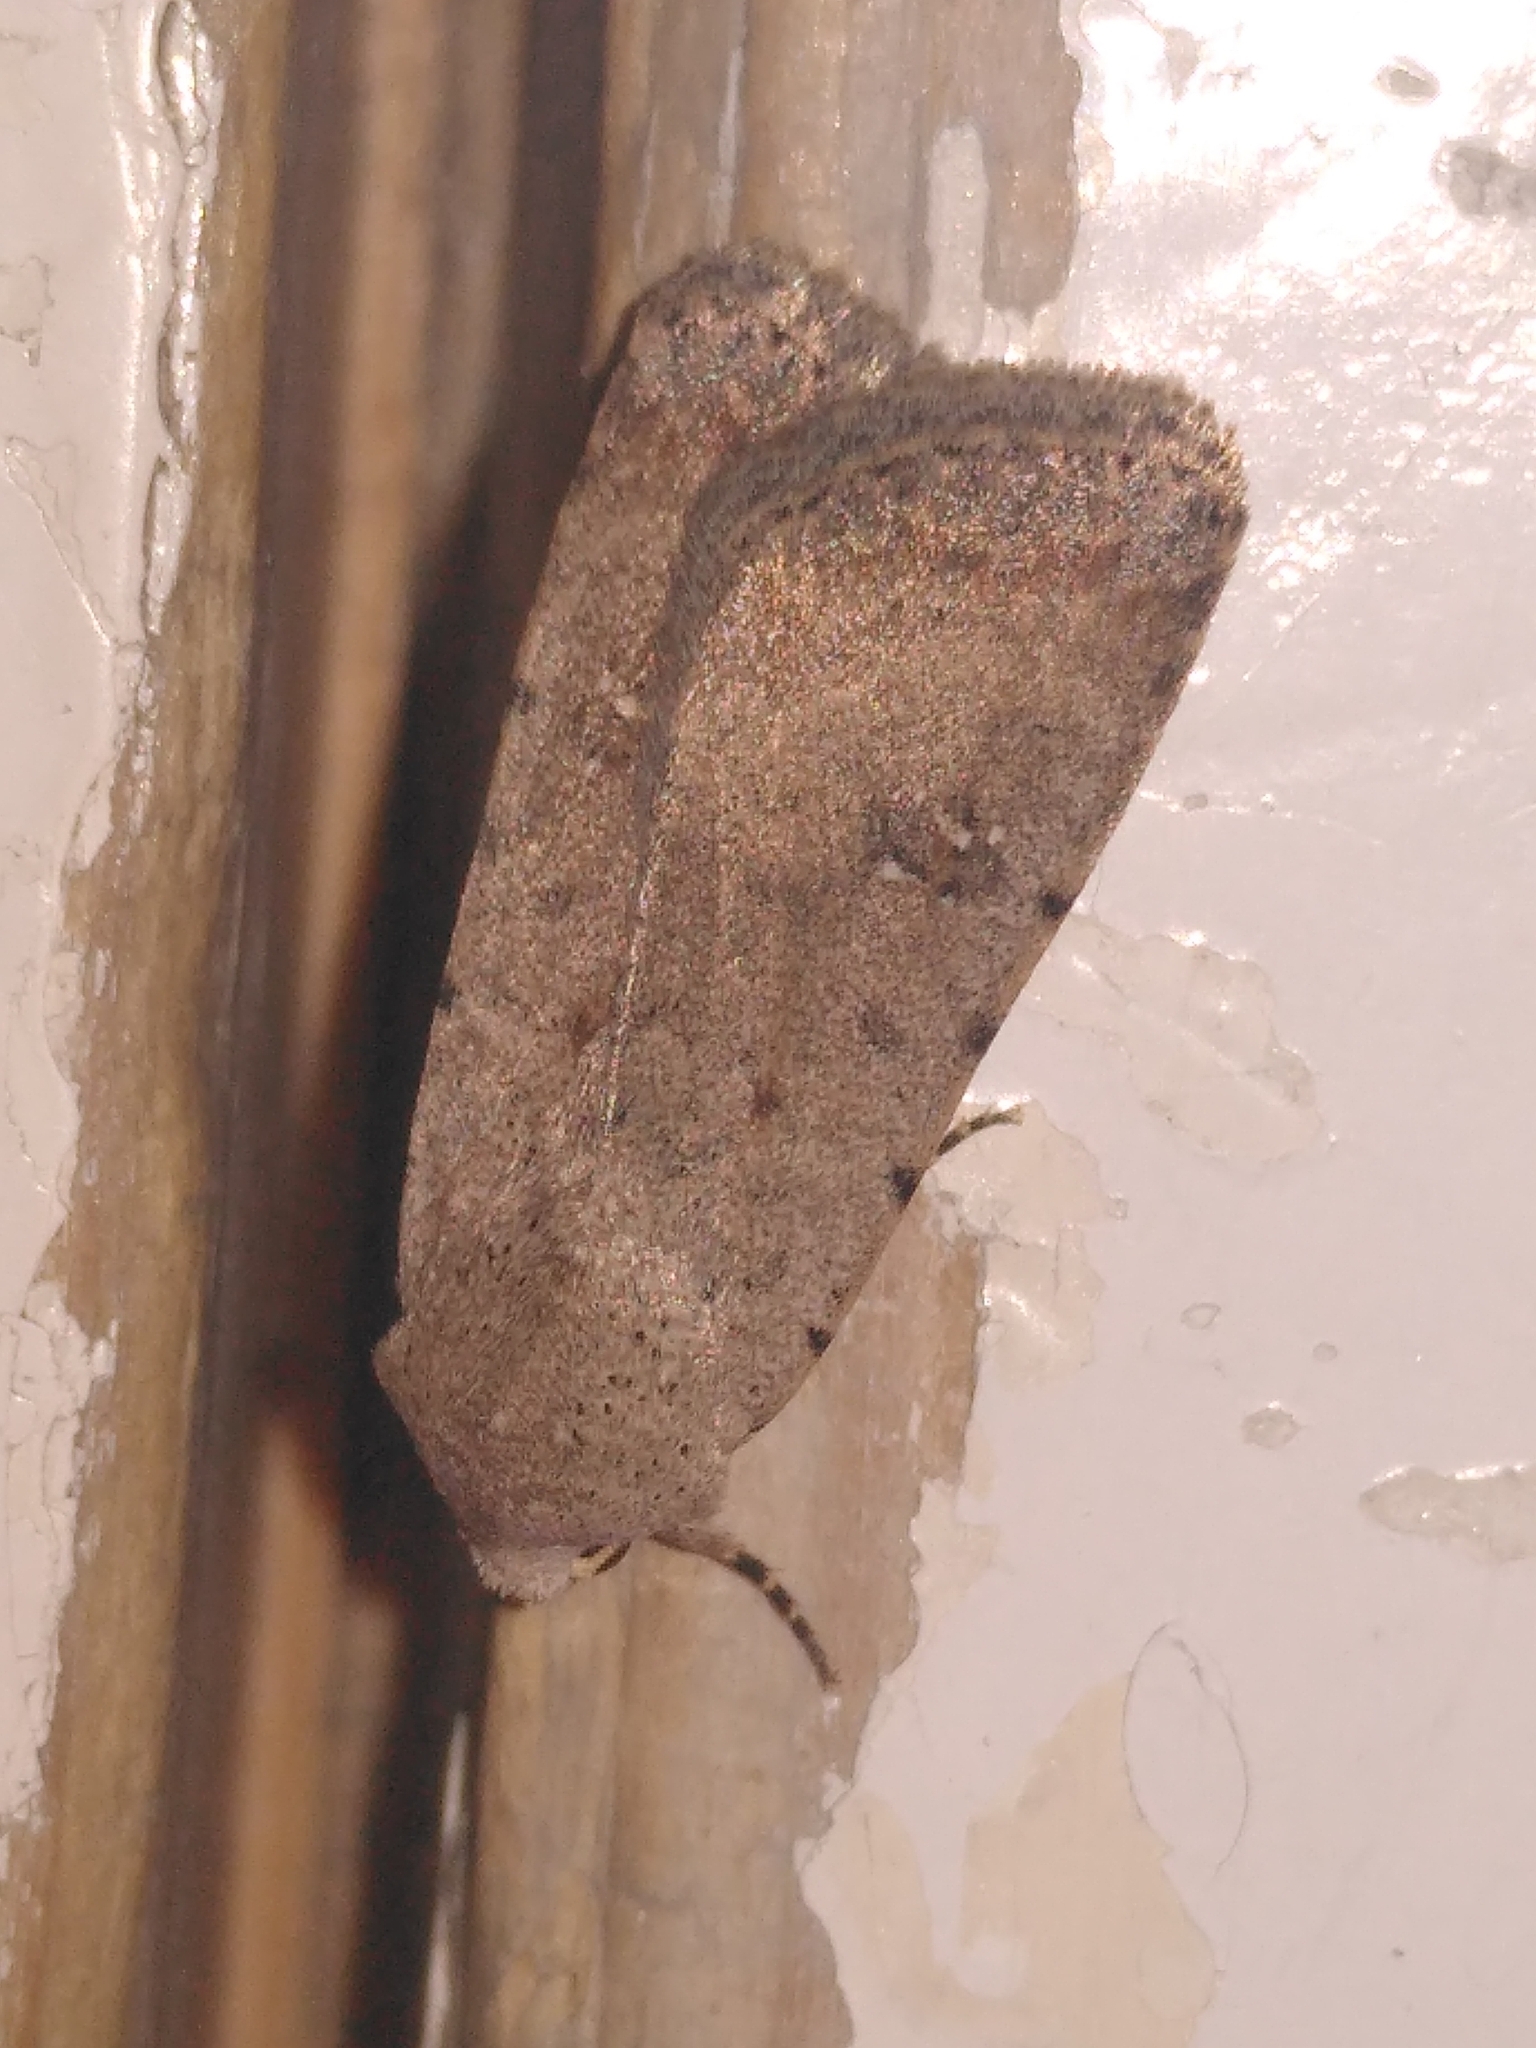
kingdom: Animalia
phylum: Arthropoda
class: Insecta
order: Lepidoptera
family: Noctuidae
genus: Caradrina
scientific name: Caradrina clavipalpis
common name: Pale mottled willow
